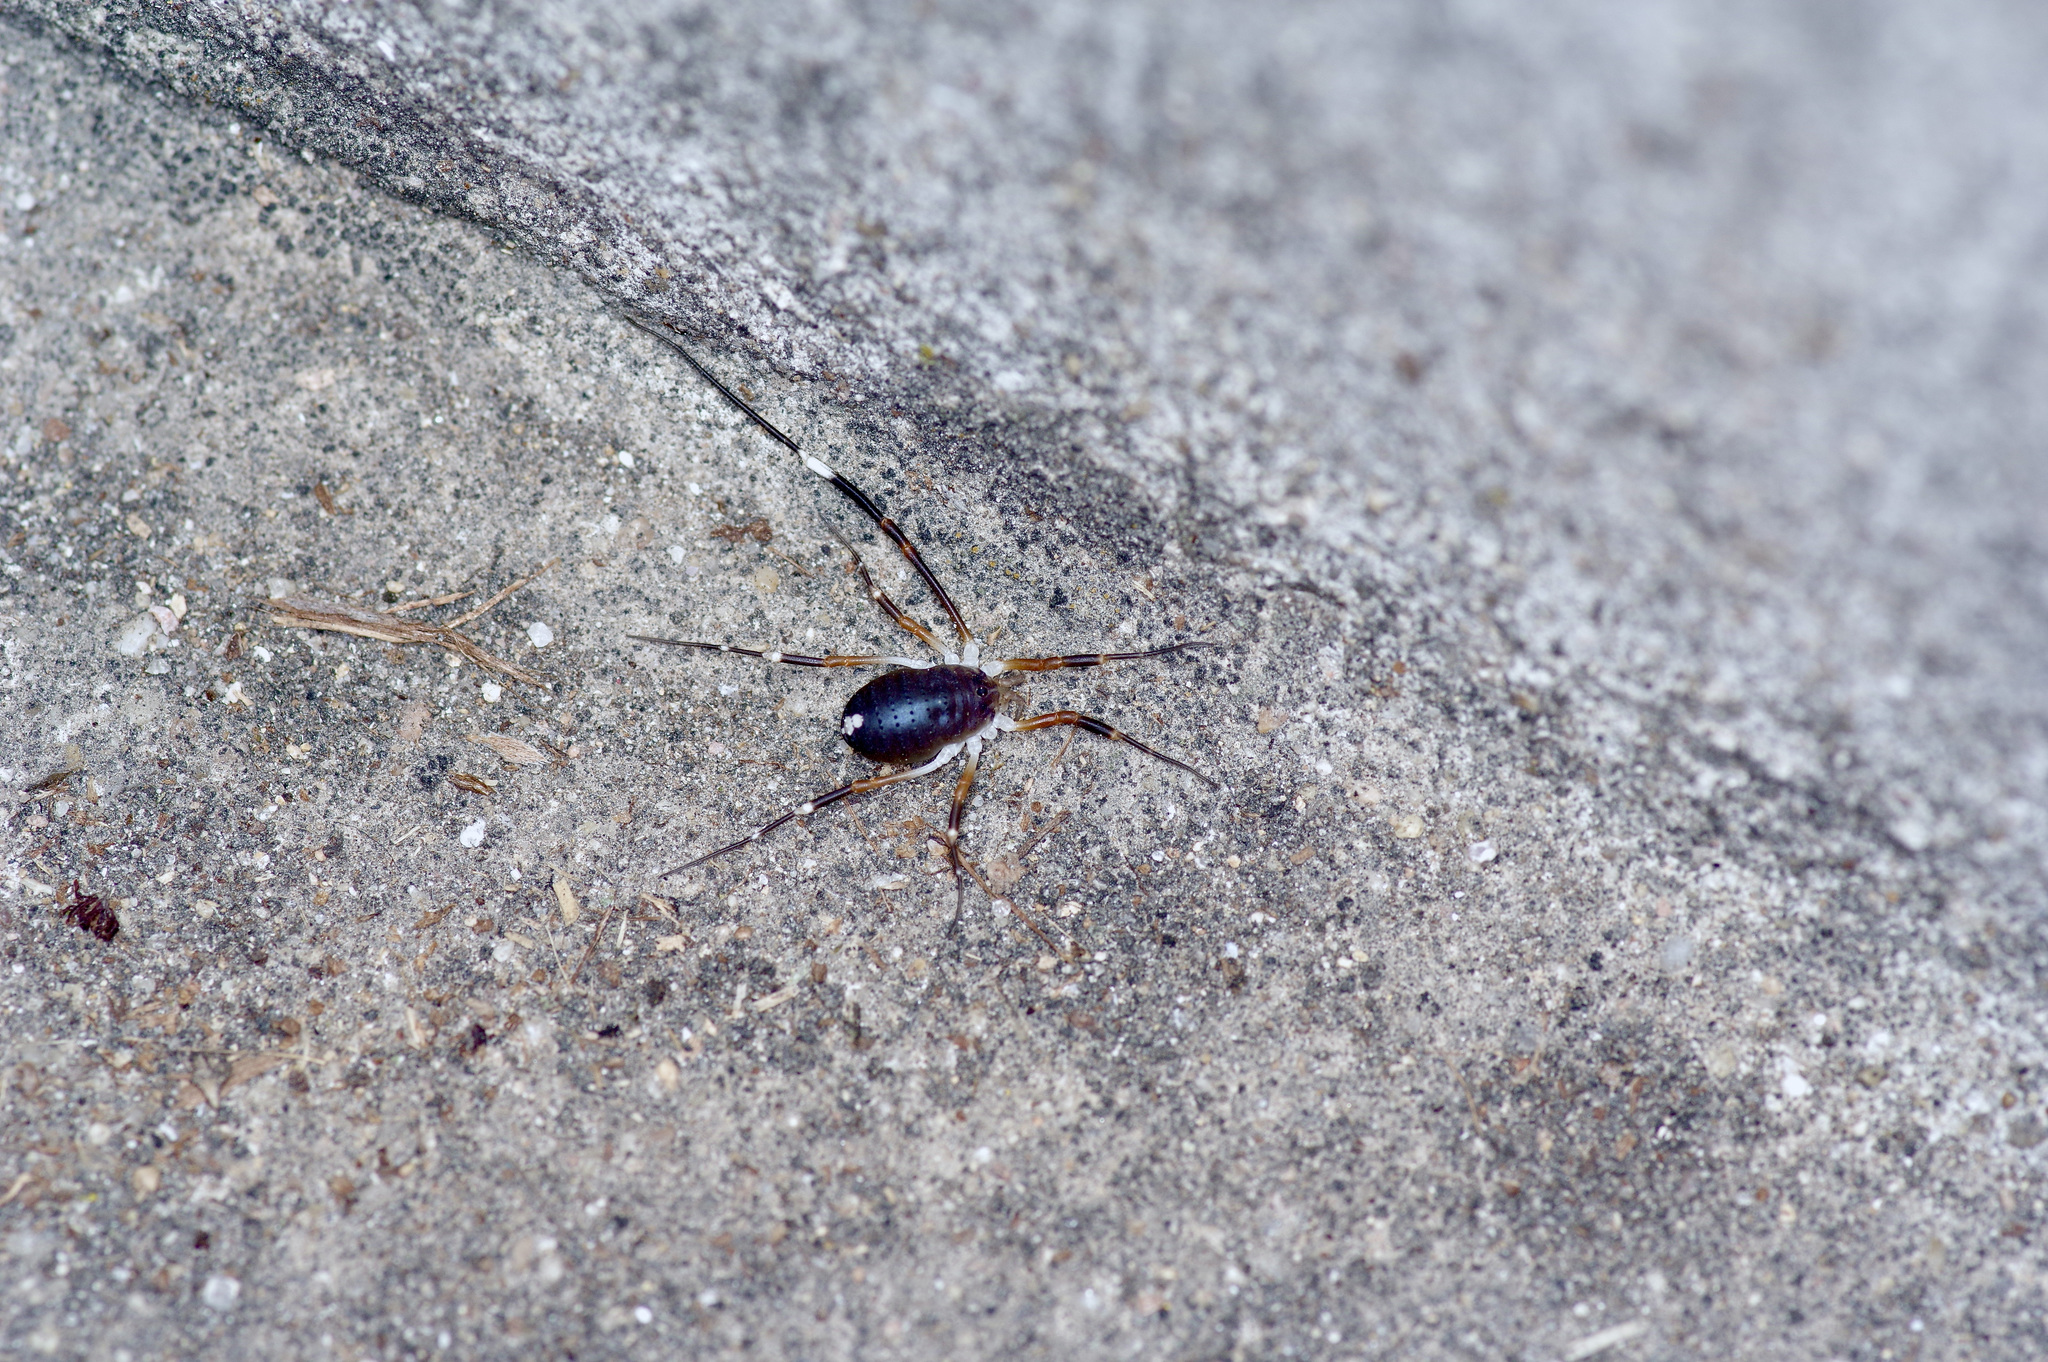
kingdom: Animalia
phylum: Arthropoda
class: Arachnida
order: Opiliones
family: Globipedidae
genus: Dalquestia
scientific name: Dalquestia formosa
